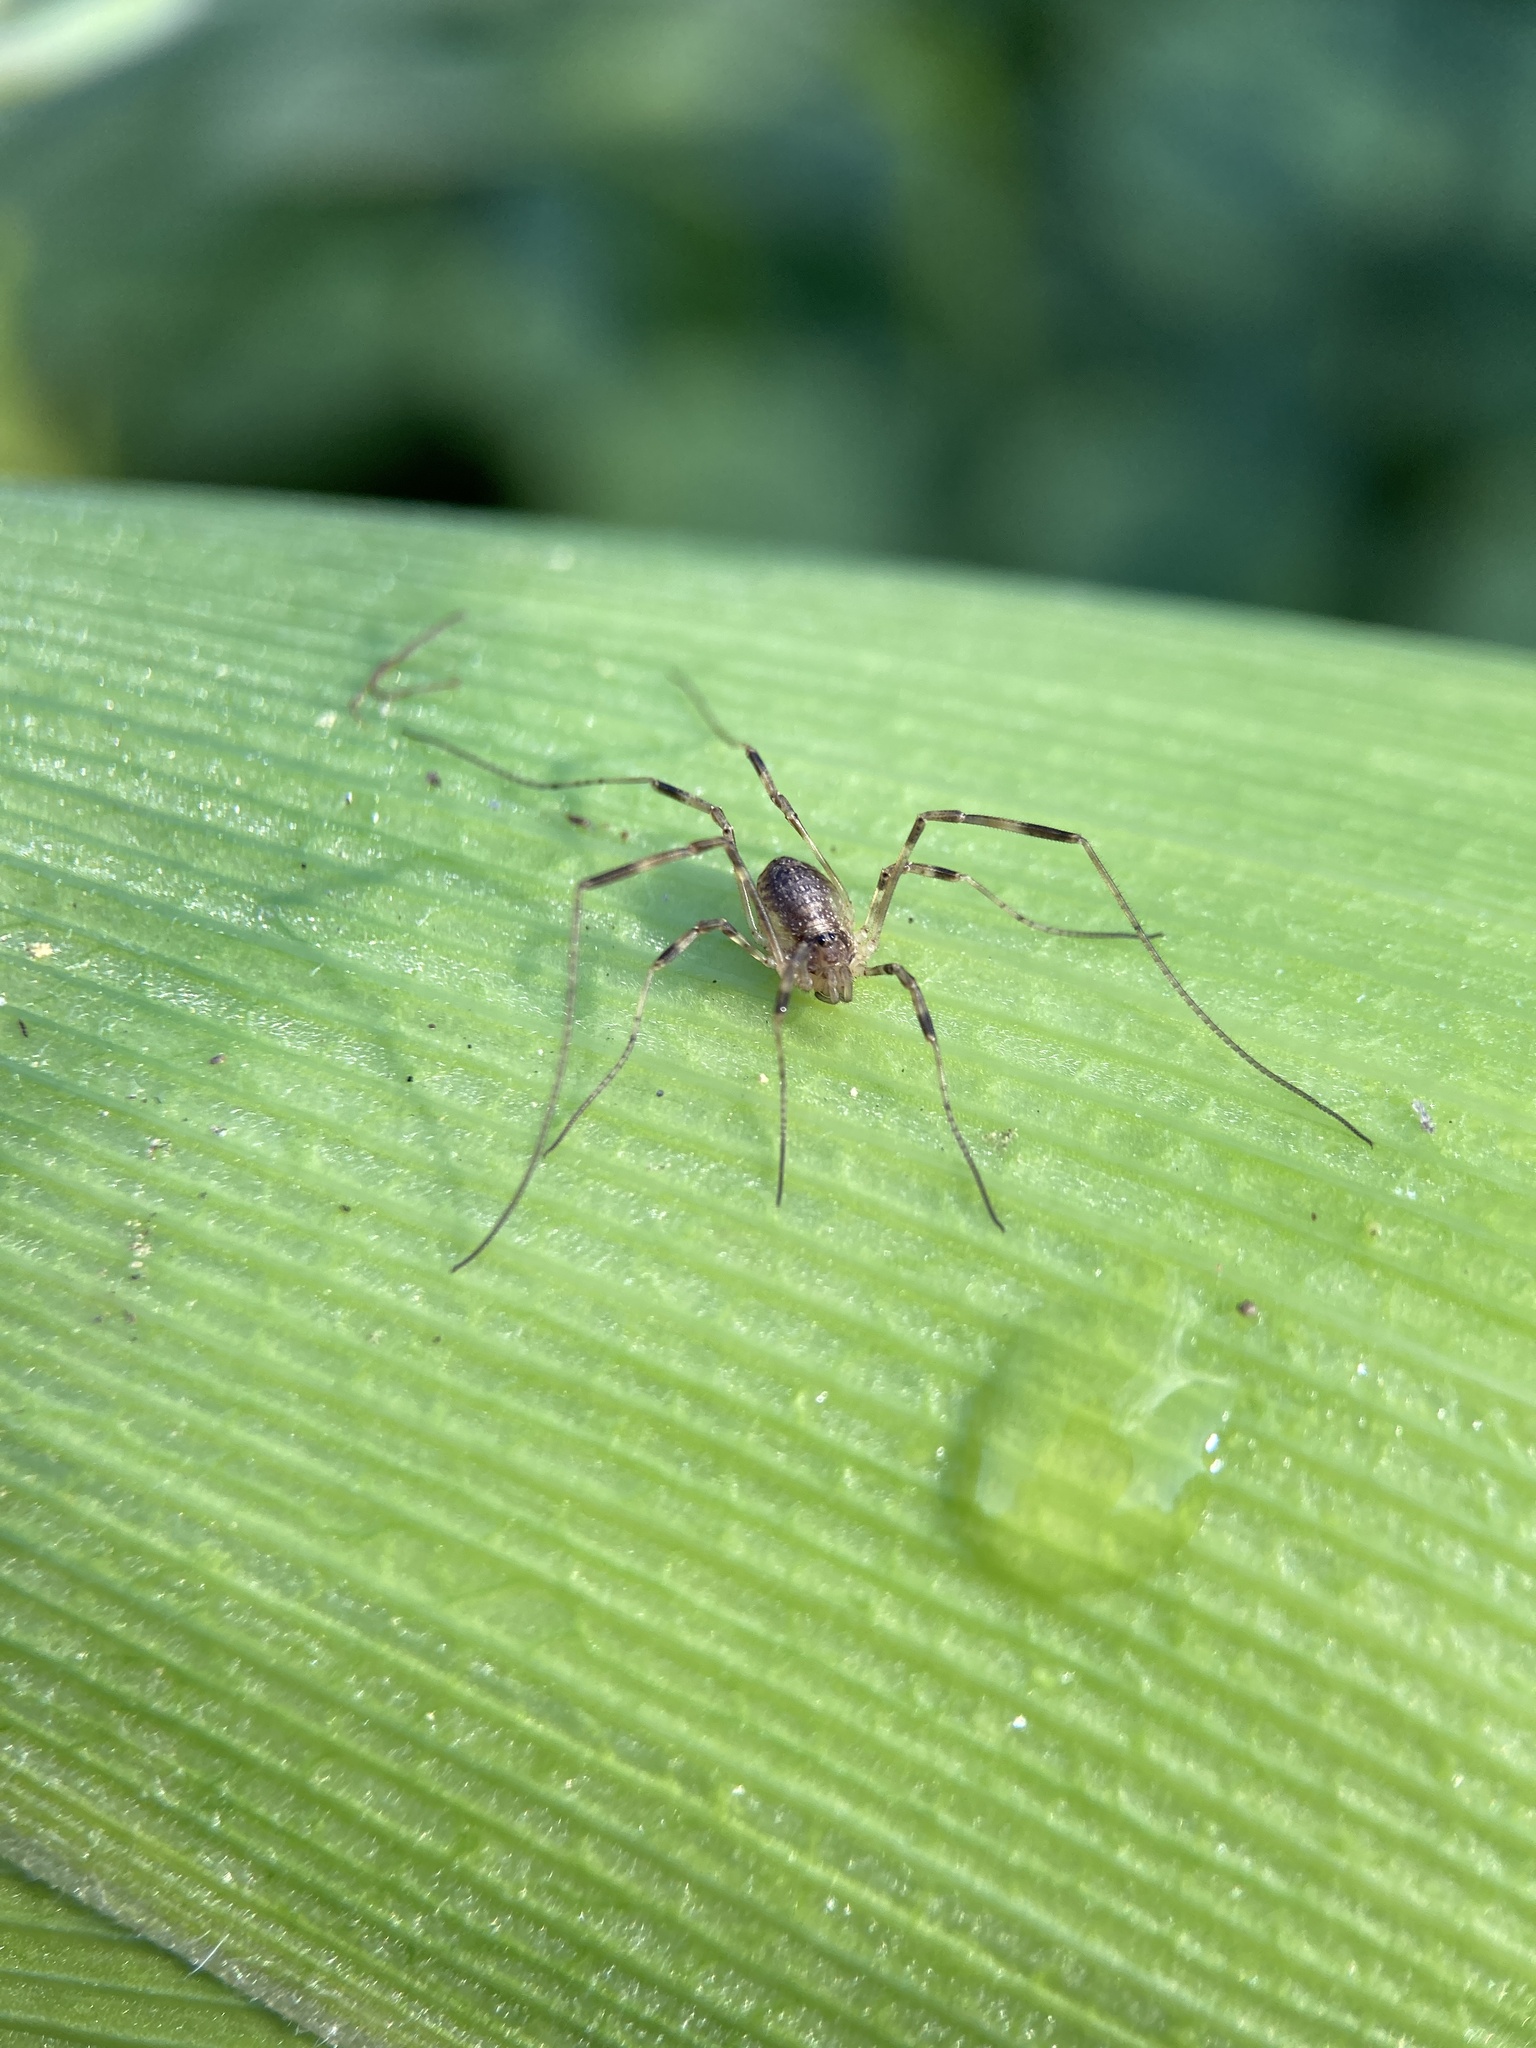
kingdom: Animalia
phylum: Arthropoda
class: Arachnida
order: Opiliones
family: Phalangiidae
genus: Paroligolophus
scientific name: Paroligolophus agrestis
